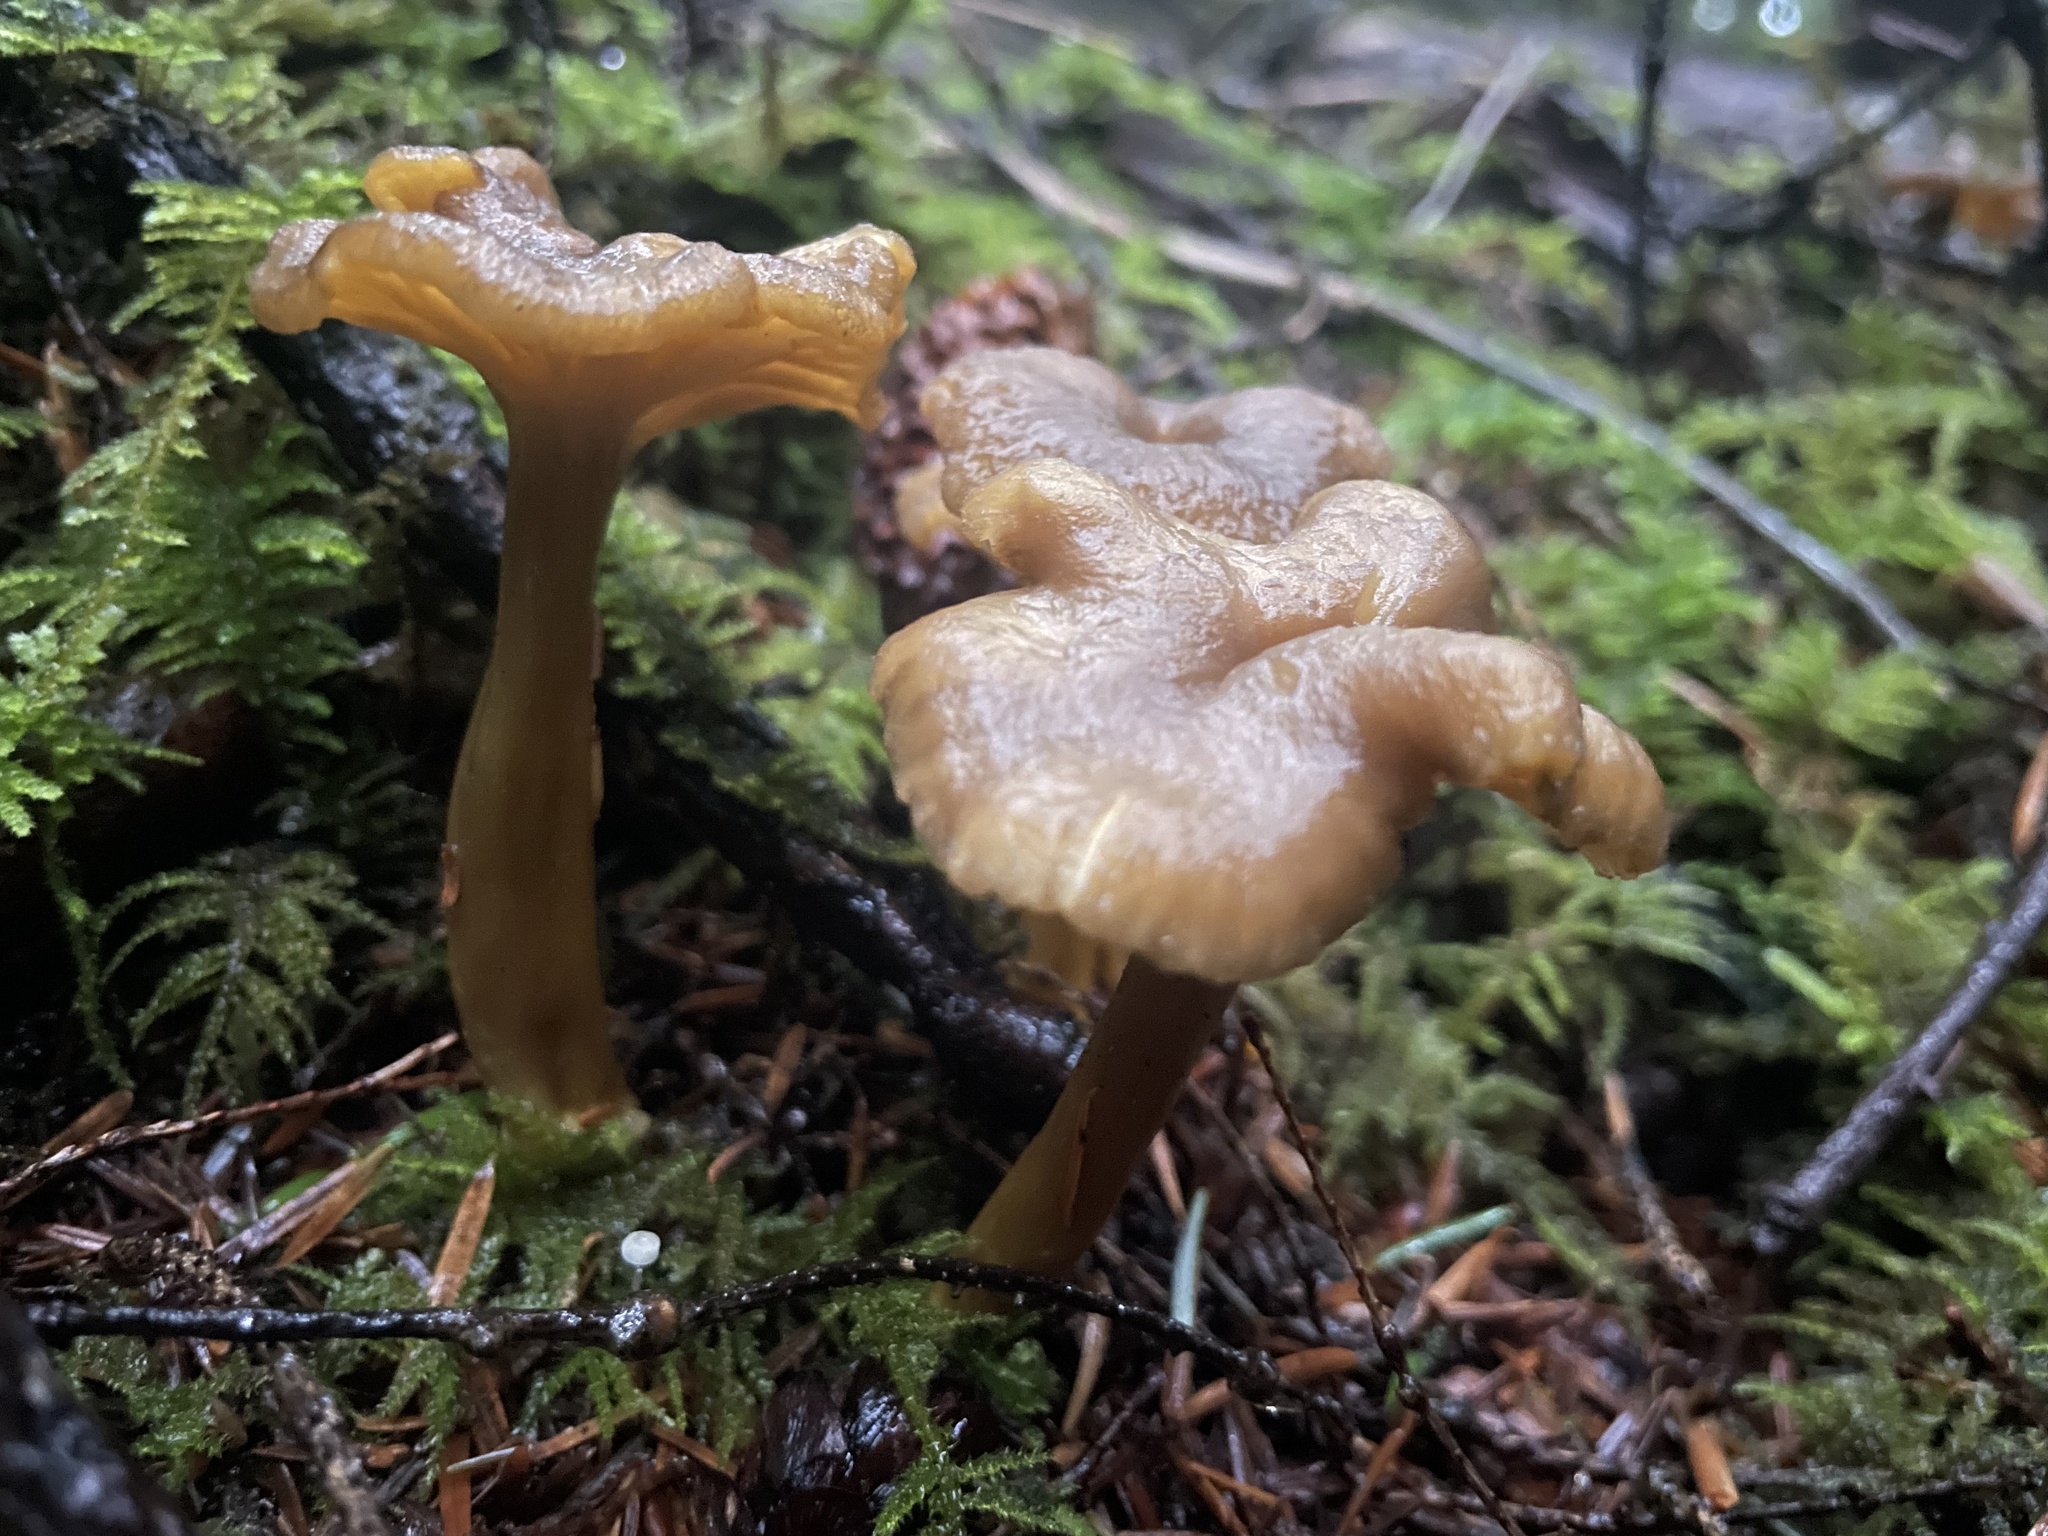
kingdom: Fungi
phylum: Basidiomycota
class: Agaricomycetes
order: Cantharellales
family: Hydnaceae
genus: Craterellus
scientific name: Craterellus tubaeformis
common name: Yellowfoot
